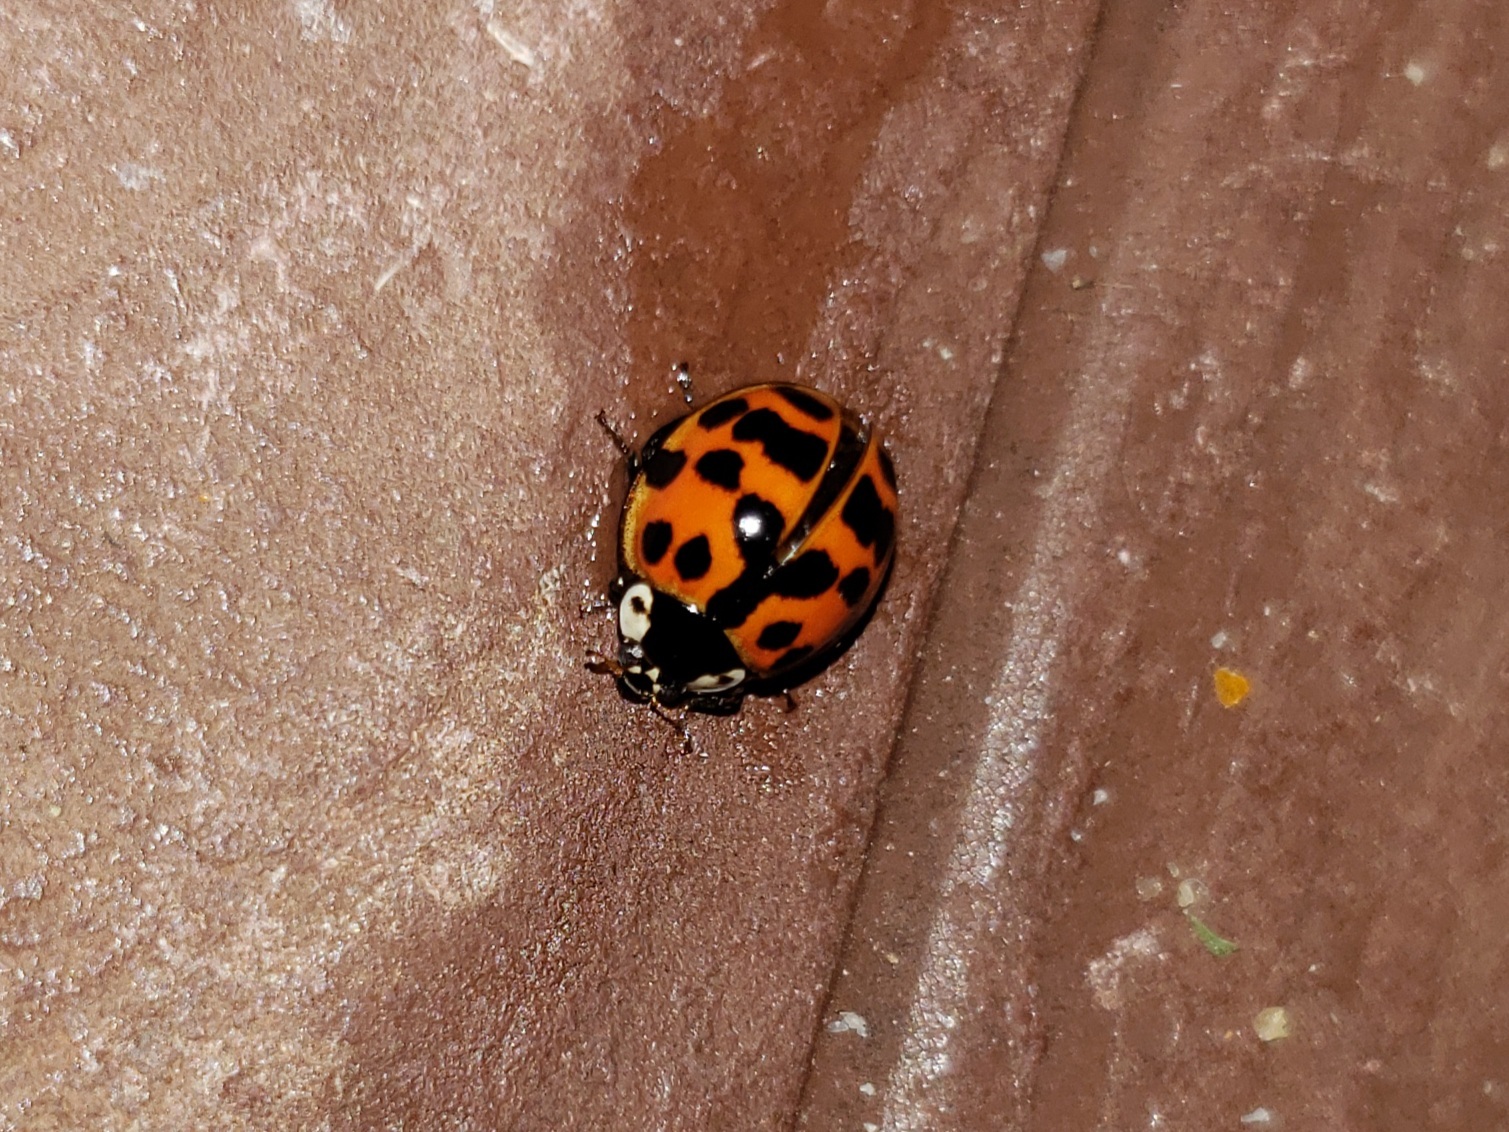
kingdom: Animalia
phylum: Arthropoda
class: Insecta
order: Coleoptera
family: Coccinellidae
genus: Harmonia
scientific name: Harmonia axyridis
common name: Harlequin ladybird
